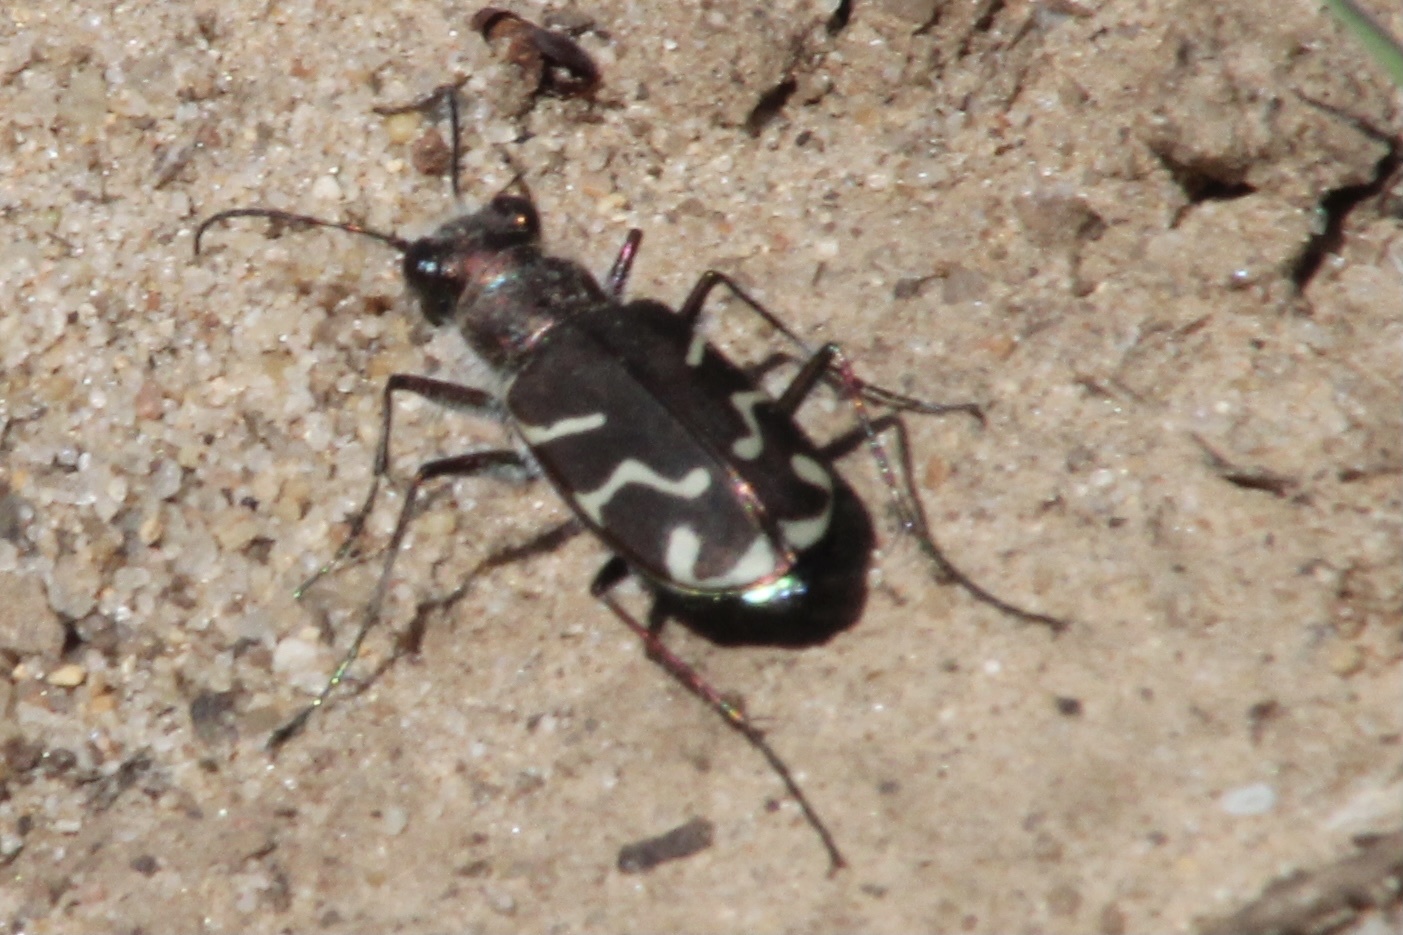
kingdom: Animalia
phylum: Arthropoda
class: Insecta
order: Coleoptera
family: Carabidae
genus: Cicindela
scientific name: Cicindela tranquebarica
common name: Oblique-lined tiger beetle
